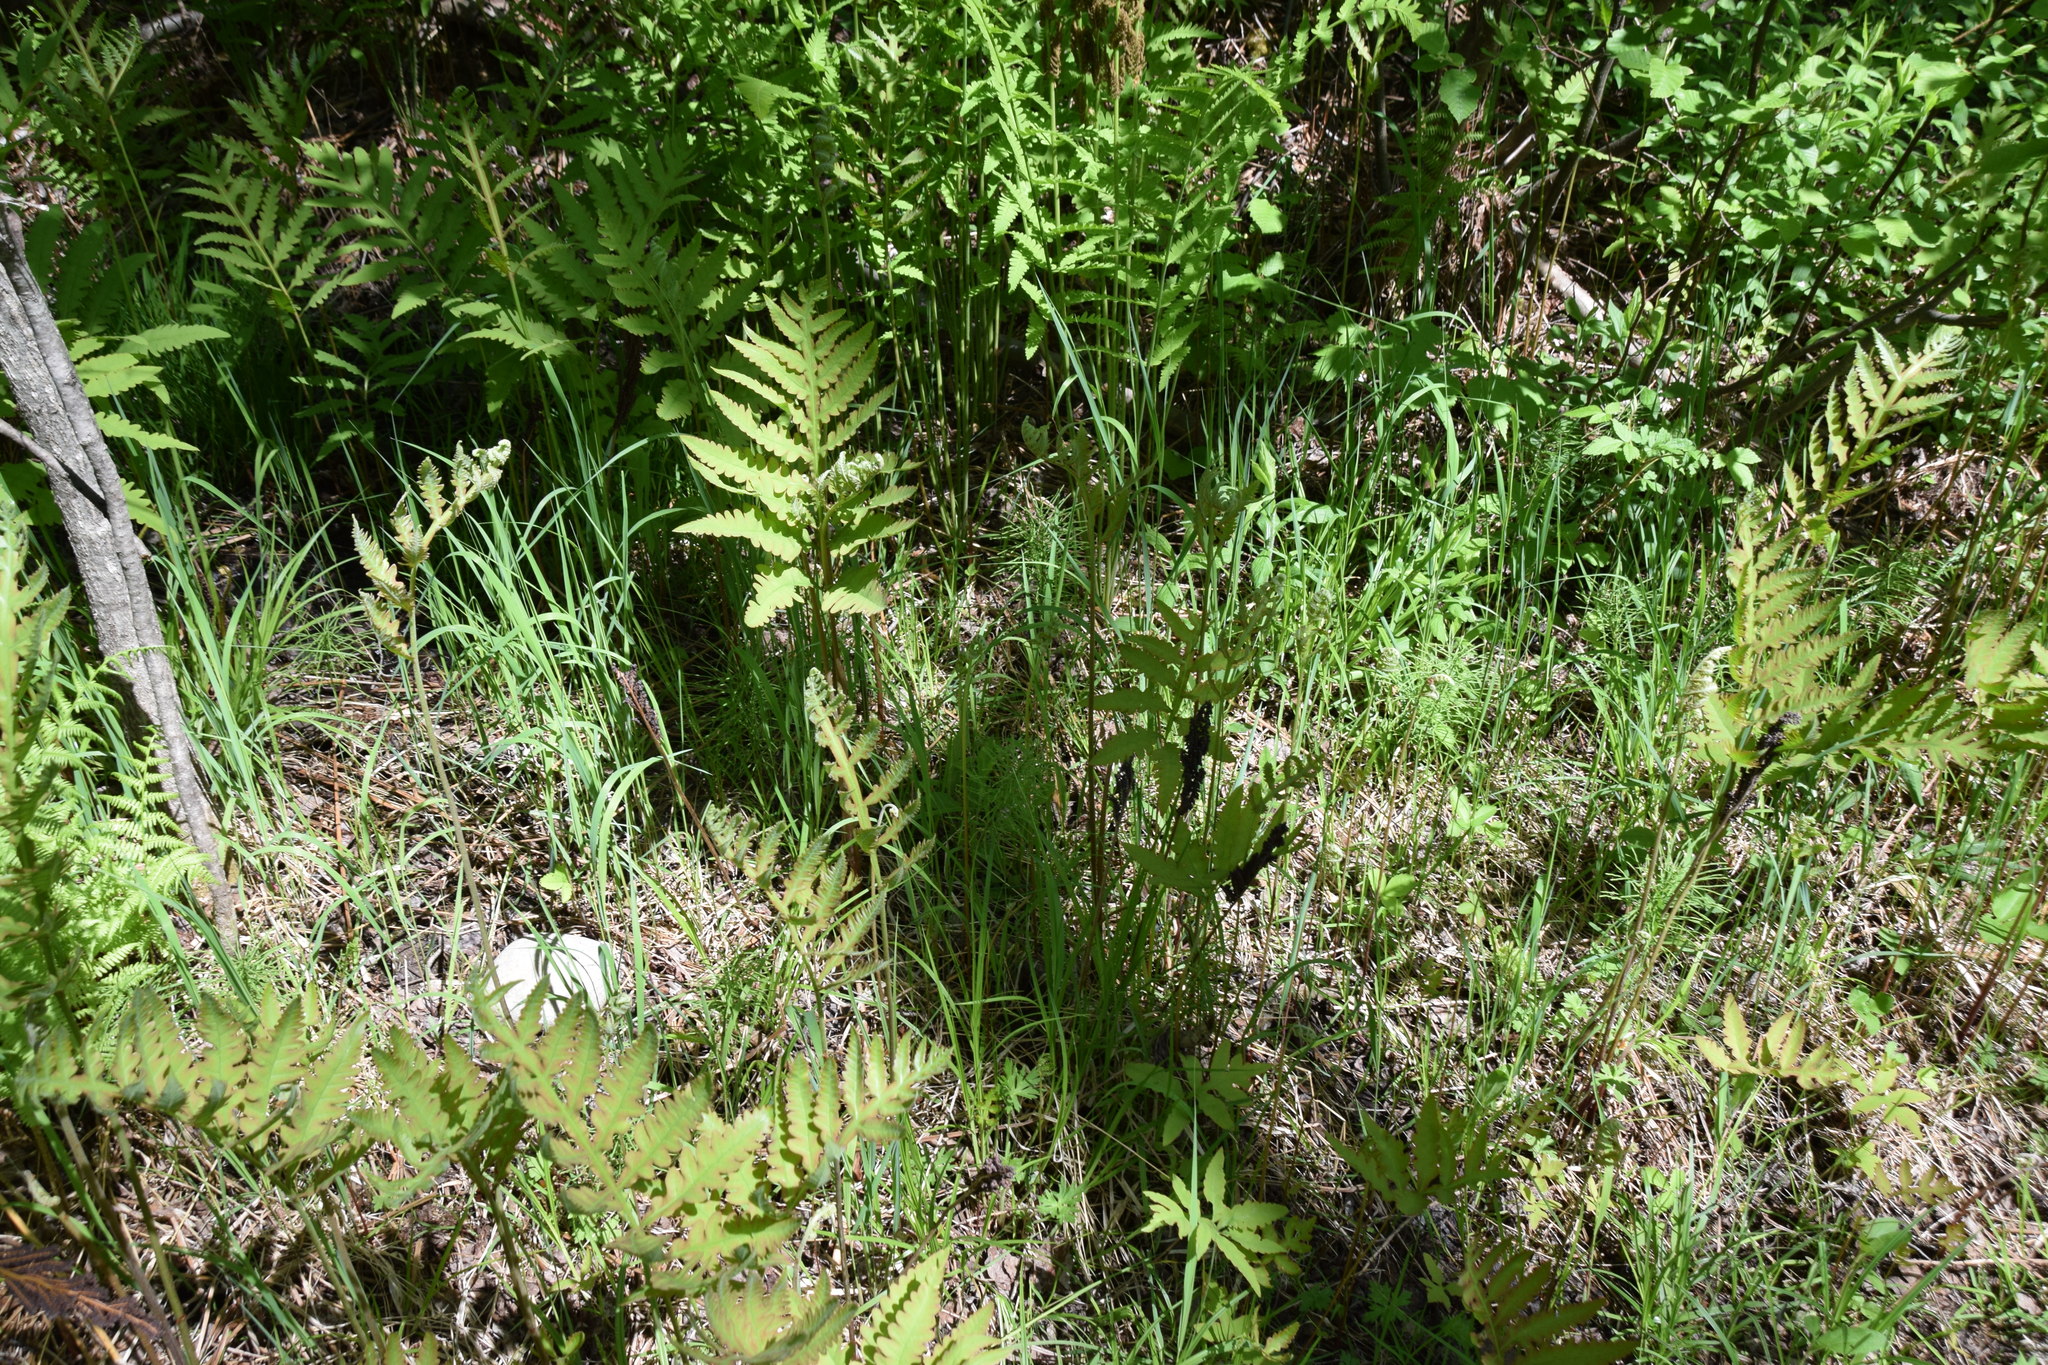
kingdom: Plantae
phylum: Tracheophyta
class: Polypodiopsida
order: Polypodiales
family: Onocleaceae
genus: Onoclea
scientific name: Onoclea sensibilis
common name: Sensitive fern
